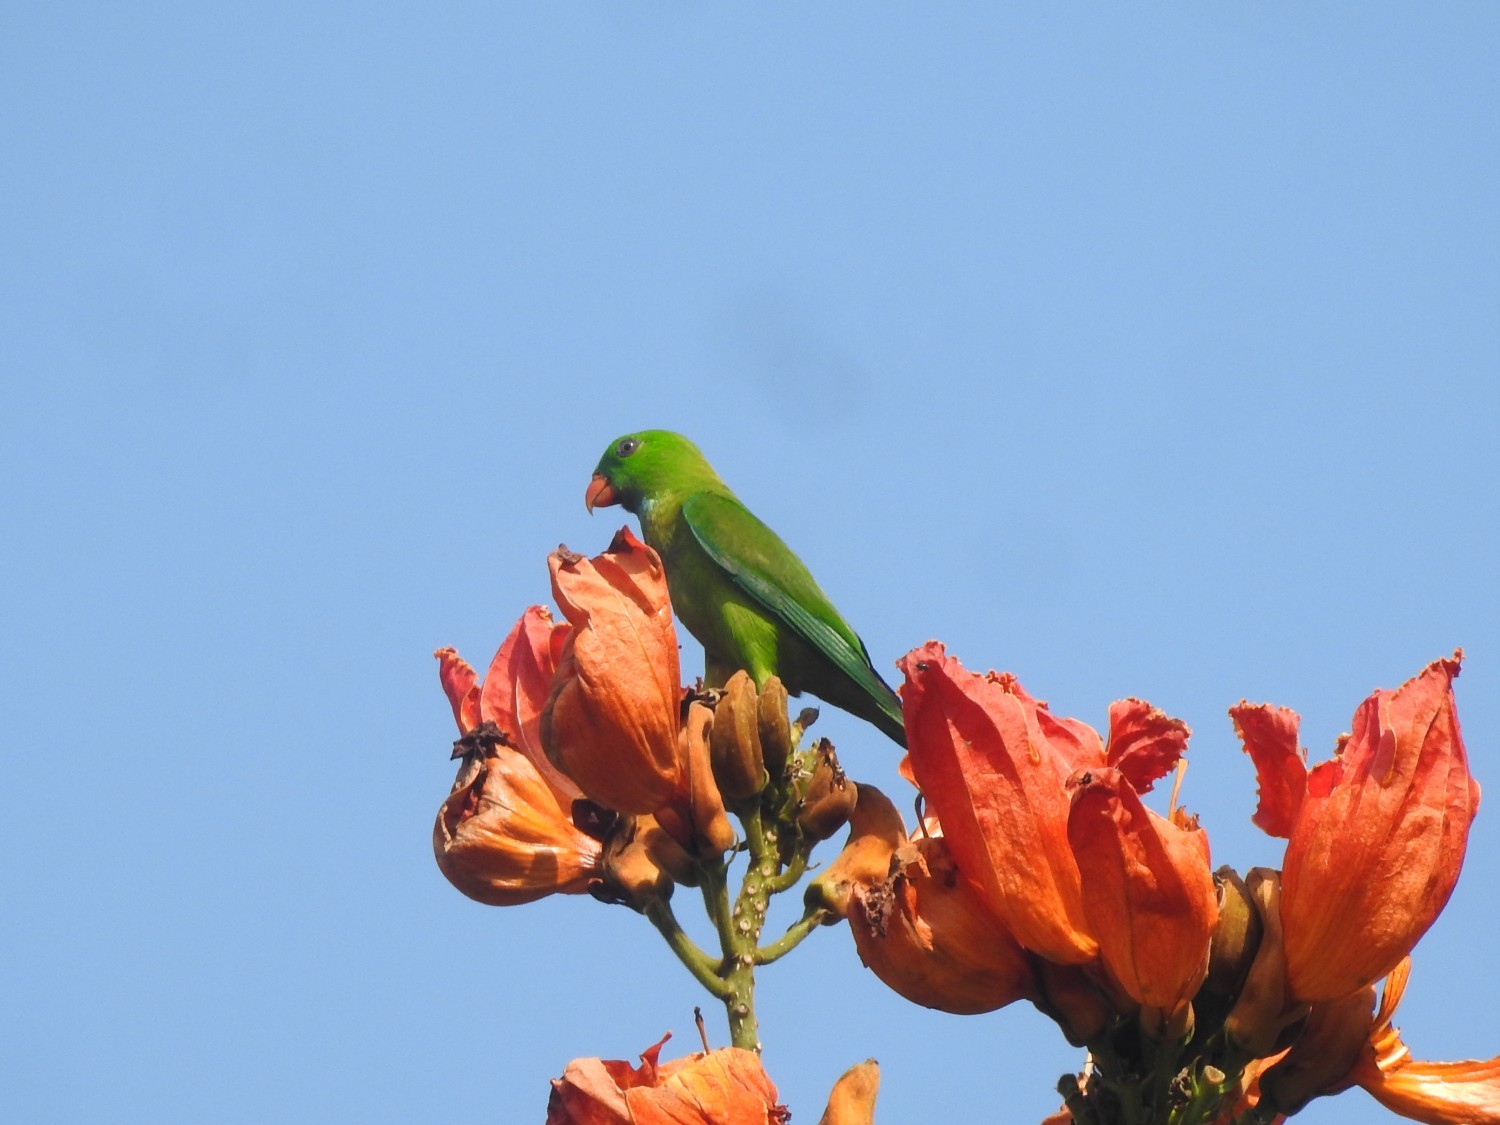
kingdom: Animalia
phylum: Chordata
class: Aves
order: Psittaciformes
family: Psittacidae
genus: Loriculus
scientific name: Loriculus vernalis
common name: Vernal hanging parrot
